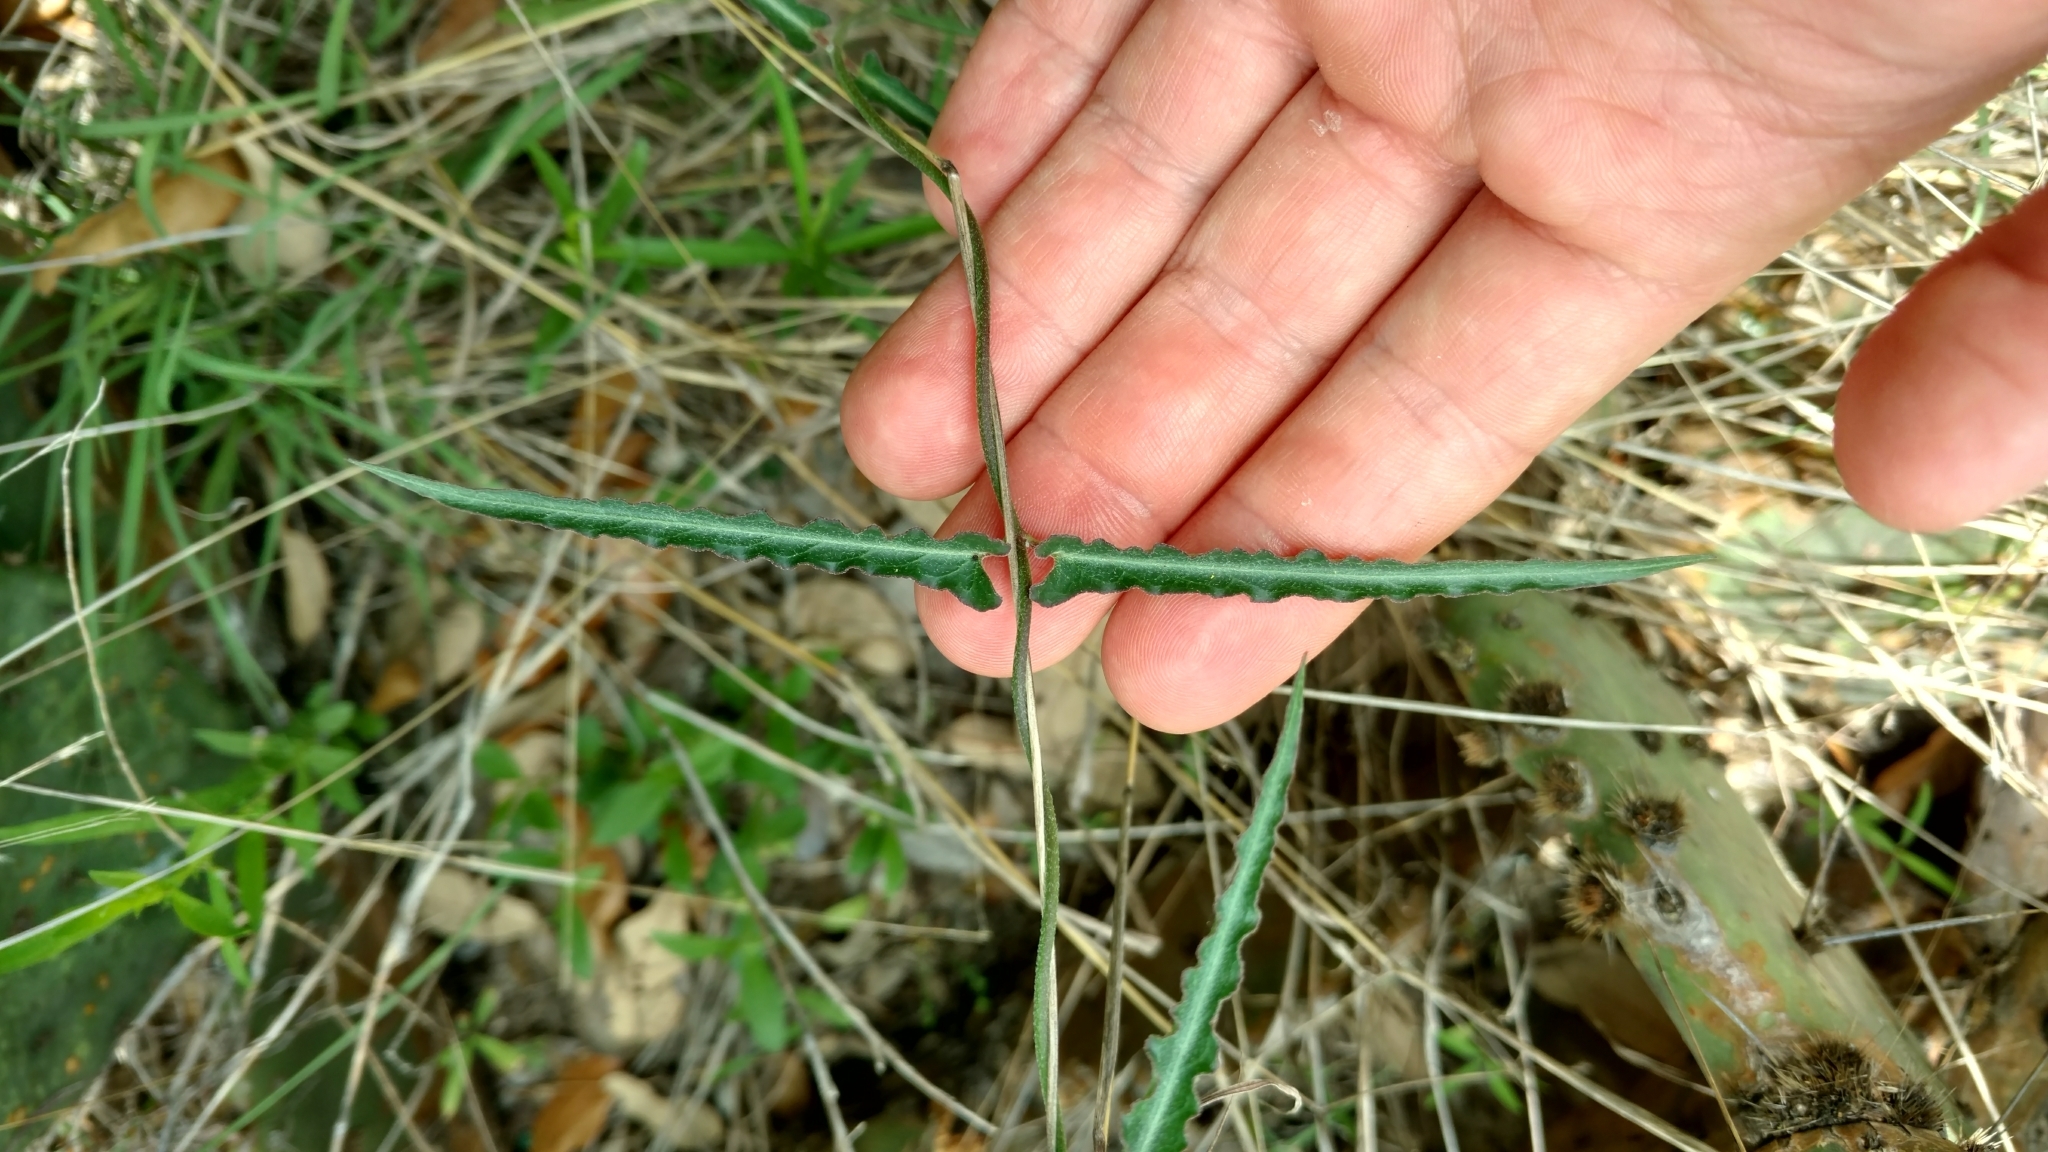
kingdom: Plantae
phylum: Tracheophyta
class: Magnoliopsida
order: Gentianales
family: Apocynaceae
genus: Funastrum
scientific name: Funastrum crispum
